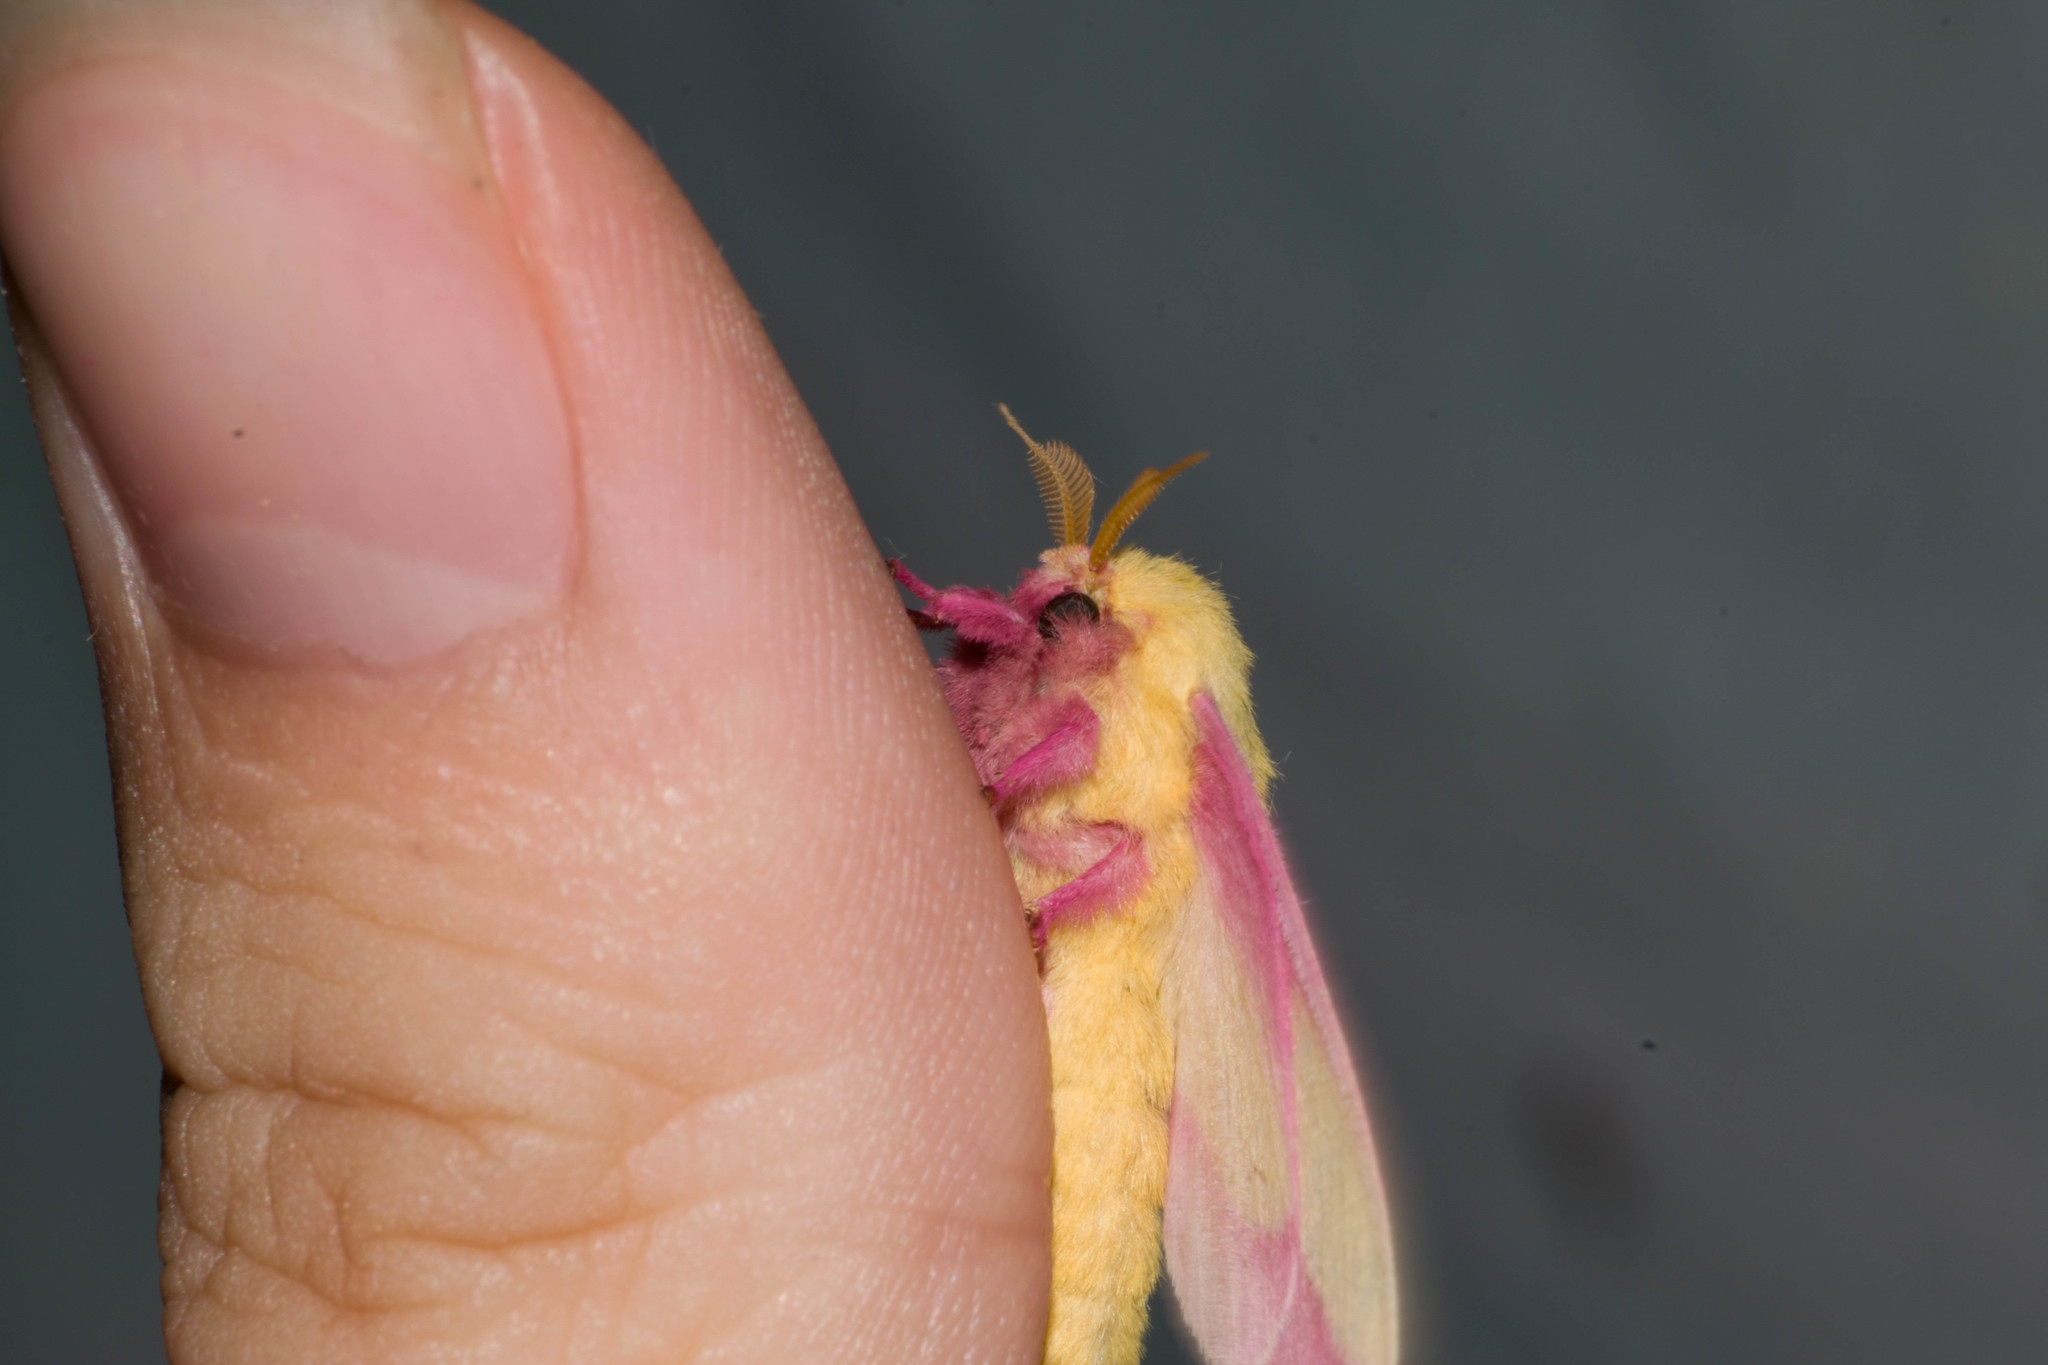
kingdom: Animalia
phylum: Arthropoda
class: Insecta
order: Lepidoptera
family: Saturniidae
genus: Dryocampa
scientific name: Dryocampa rubicunda
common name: Rosy maple moth
